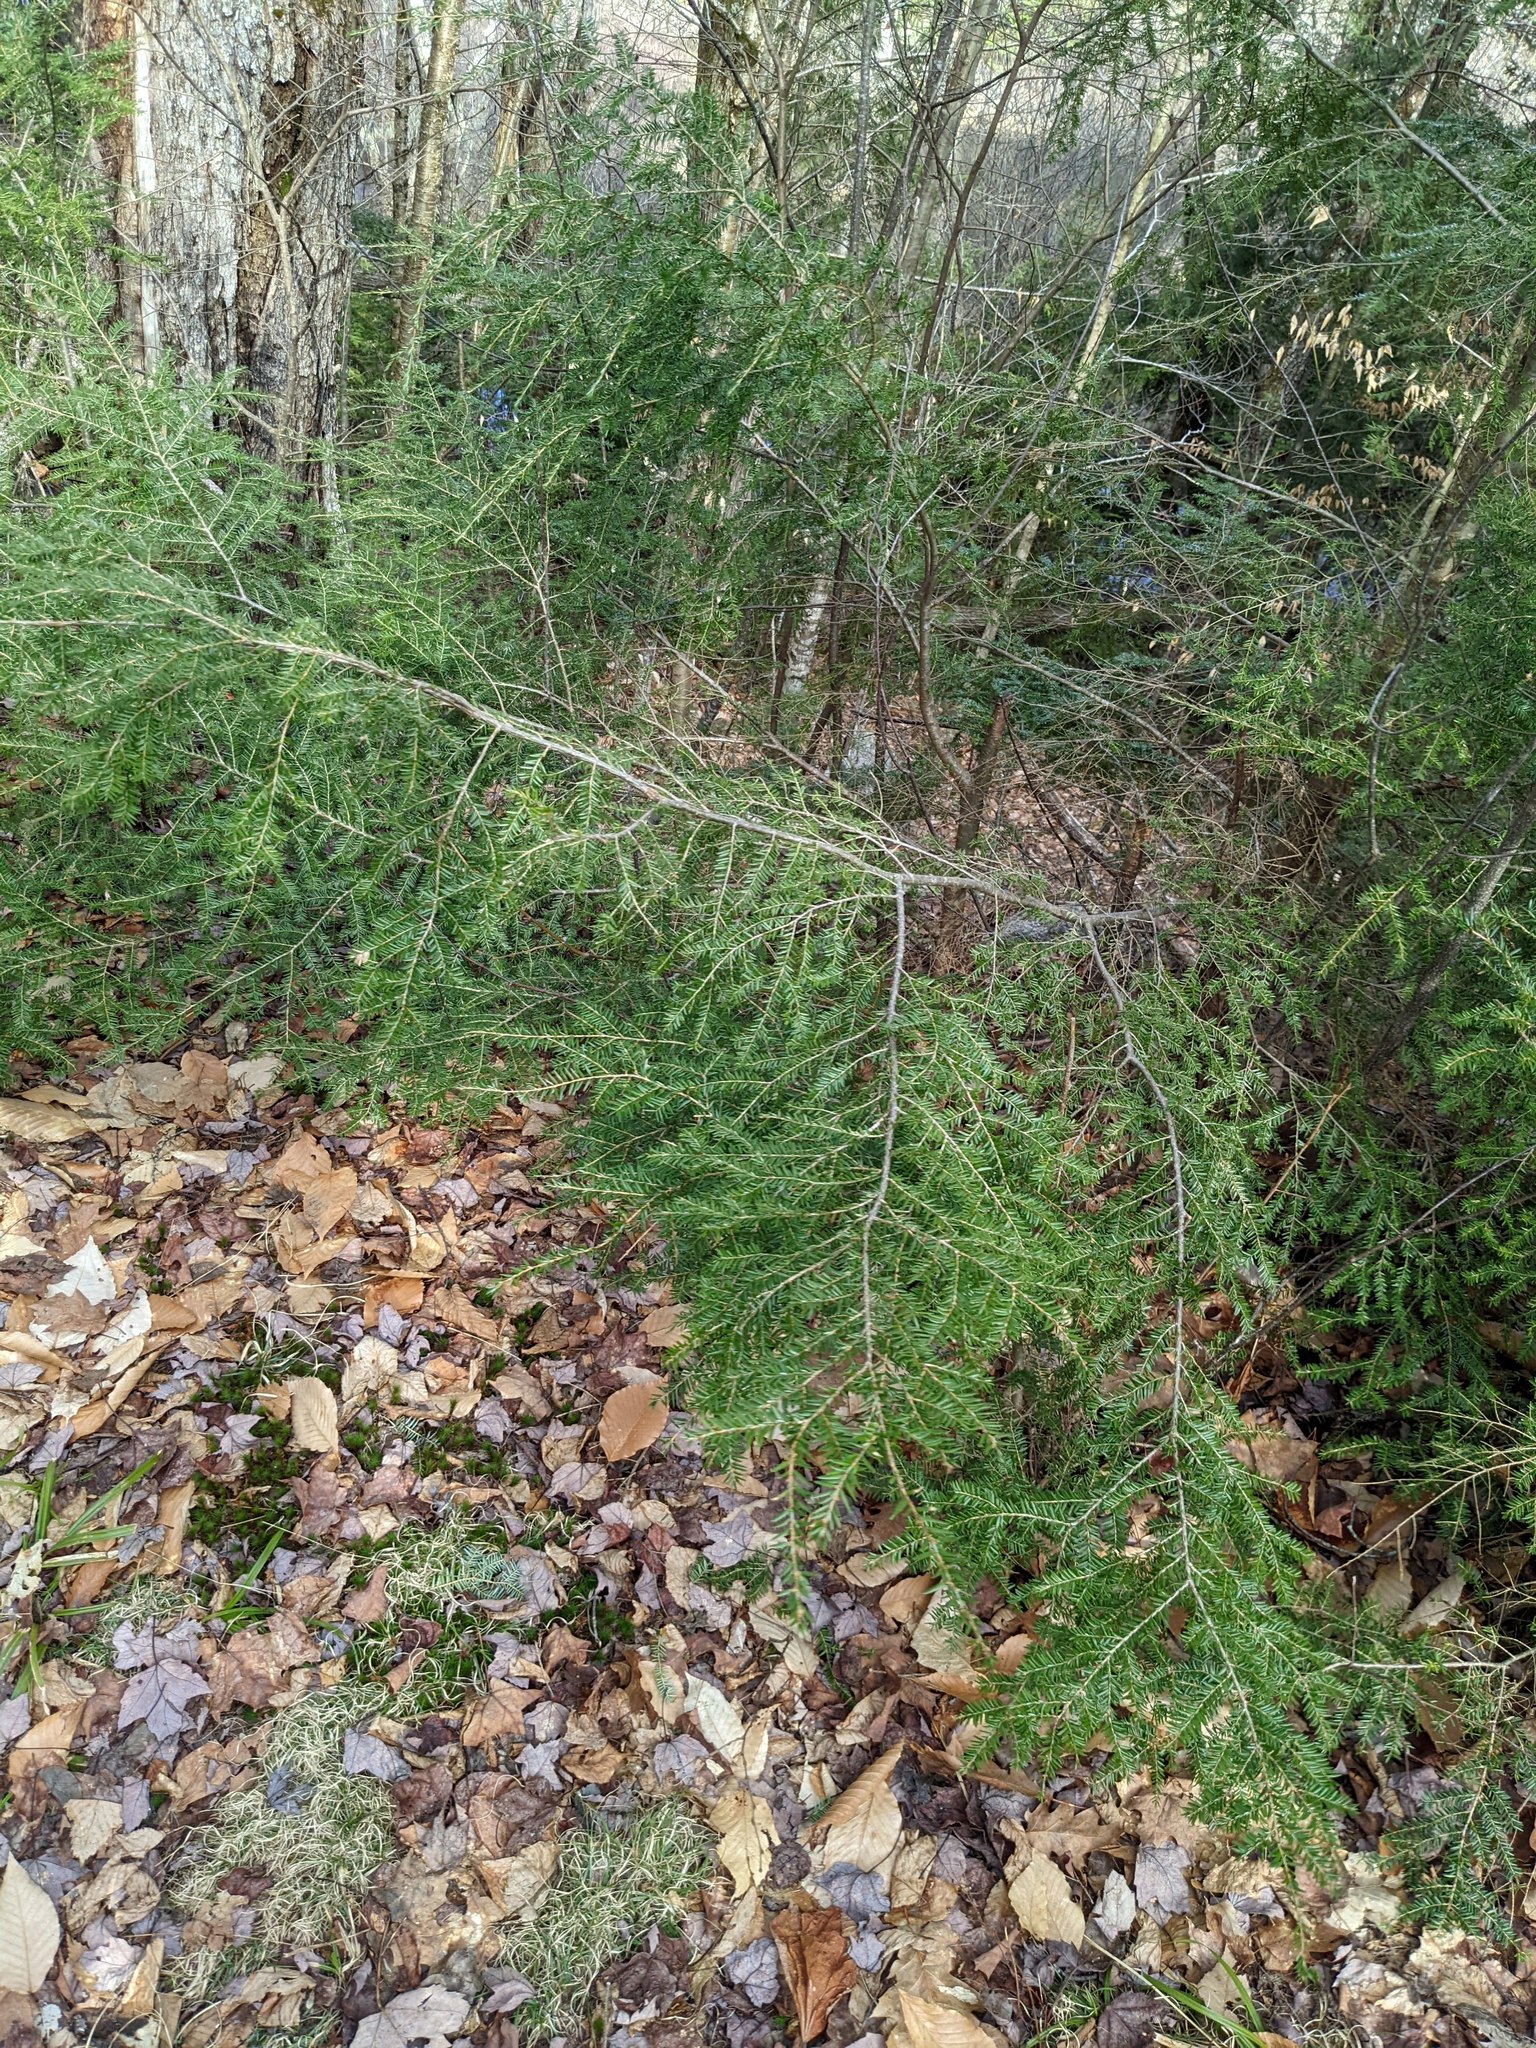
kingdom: Plantae
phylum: Tracheophyta
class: Pinopsida
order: Pinales
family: Pinaceae
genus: Tsuga
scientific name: Tsuga canadensis
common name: Eastern hemlock
